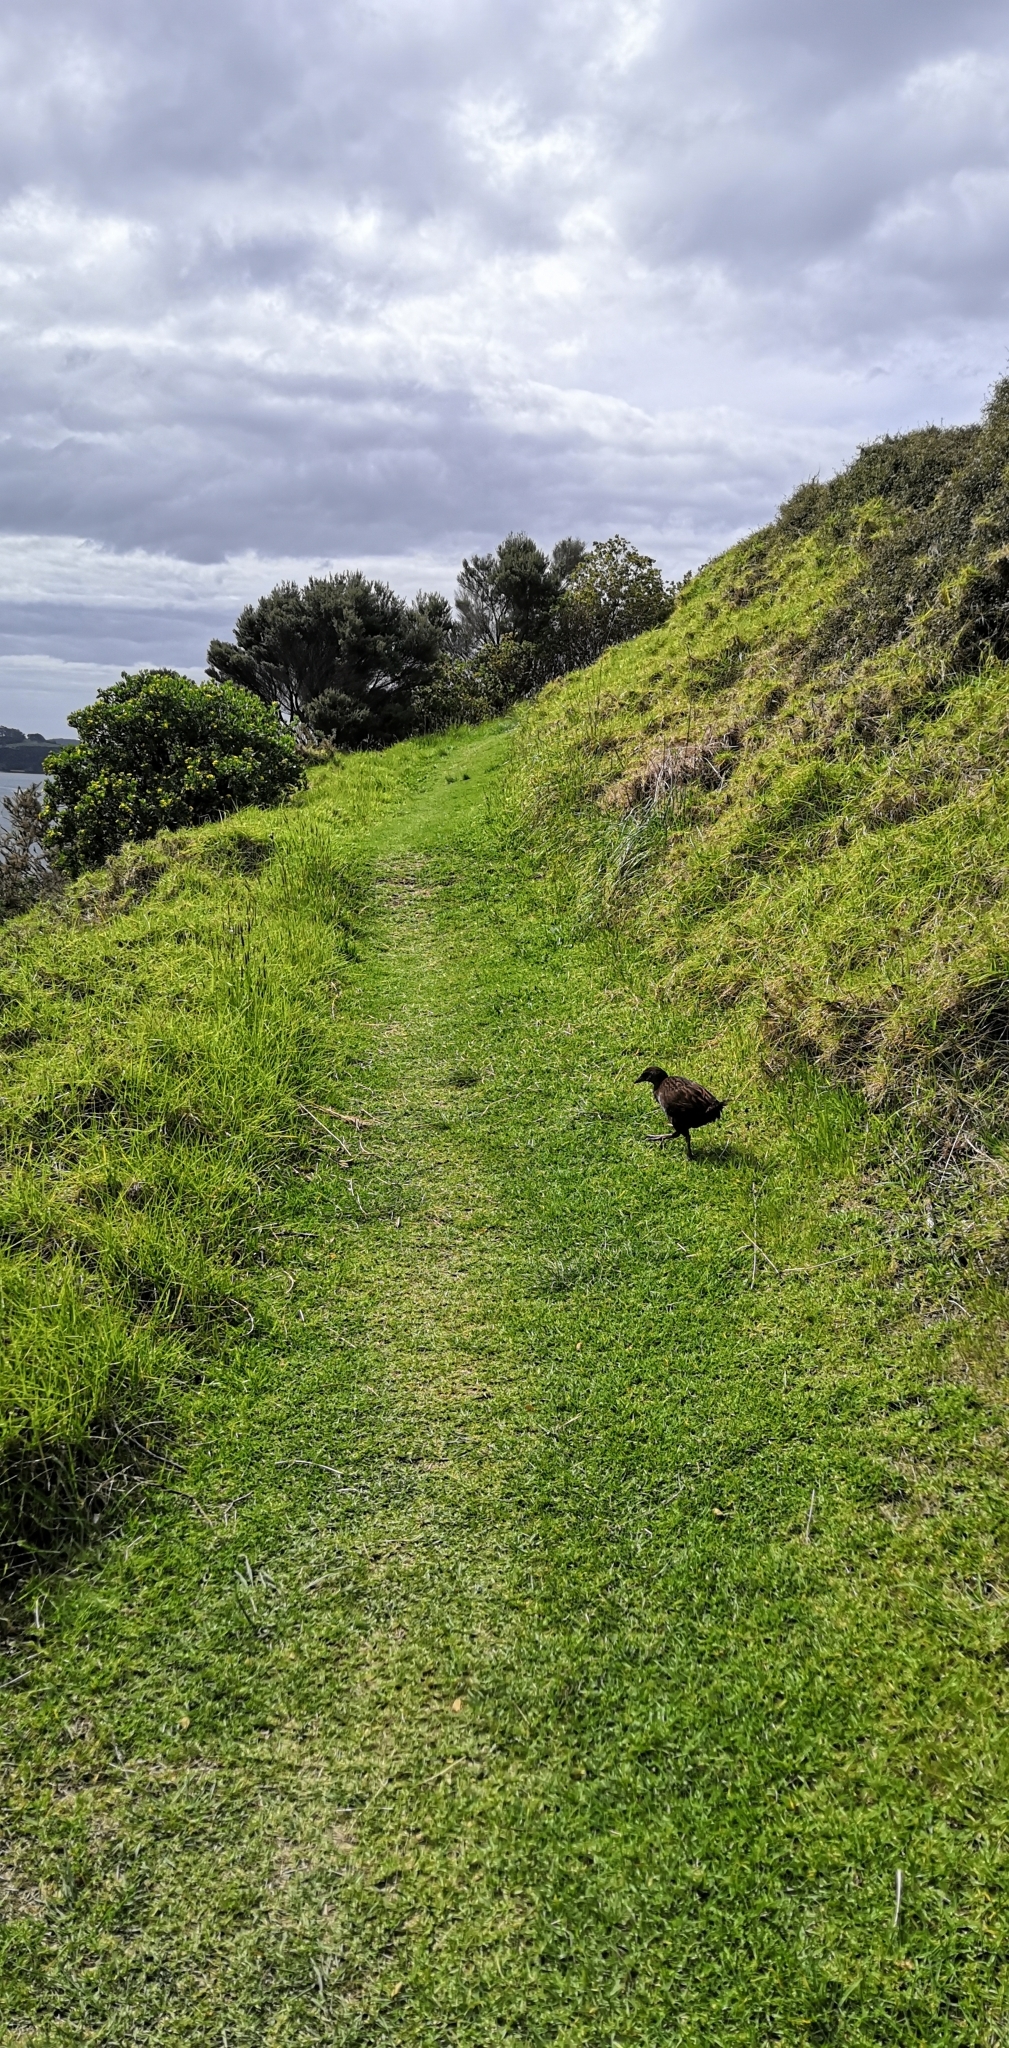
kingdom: Animalia
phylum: Chordata
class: Aves
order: Gruiformes
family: Rallidae
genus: Gallirallus
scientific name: Gallirallus australis
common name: Weka
